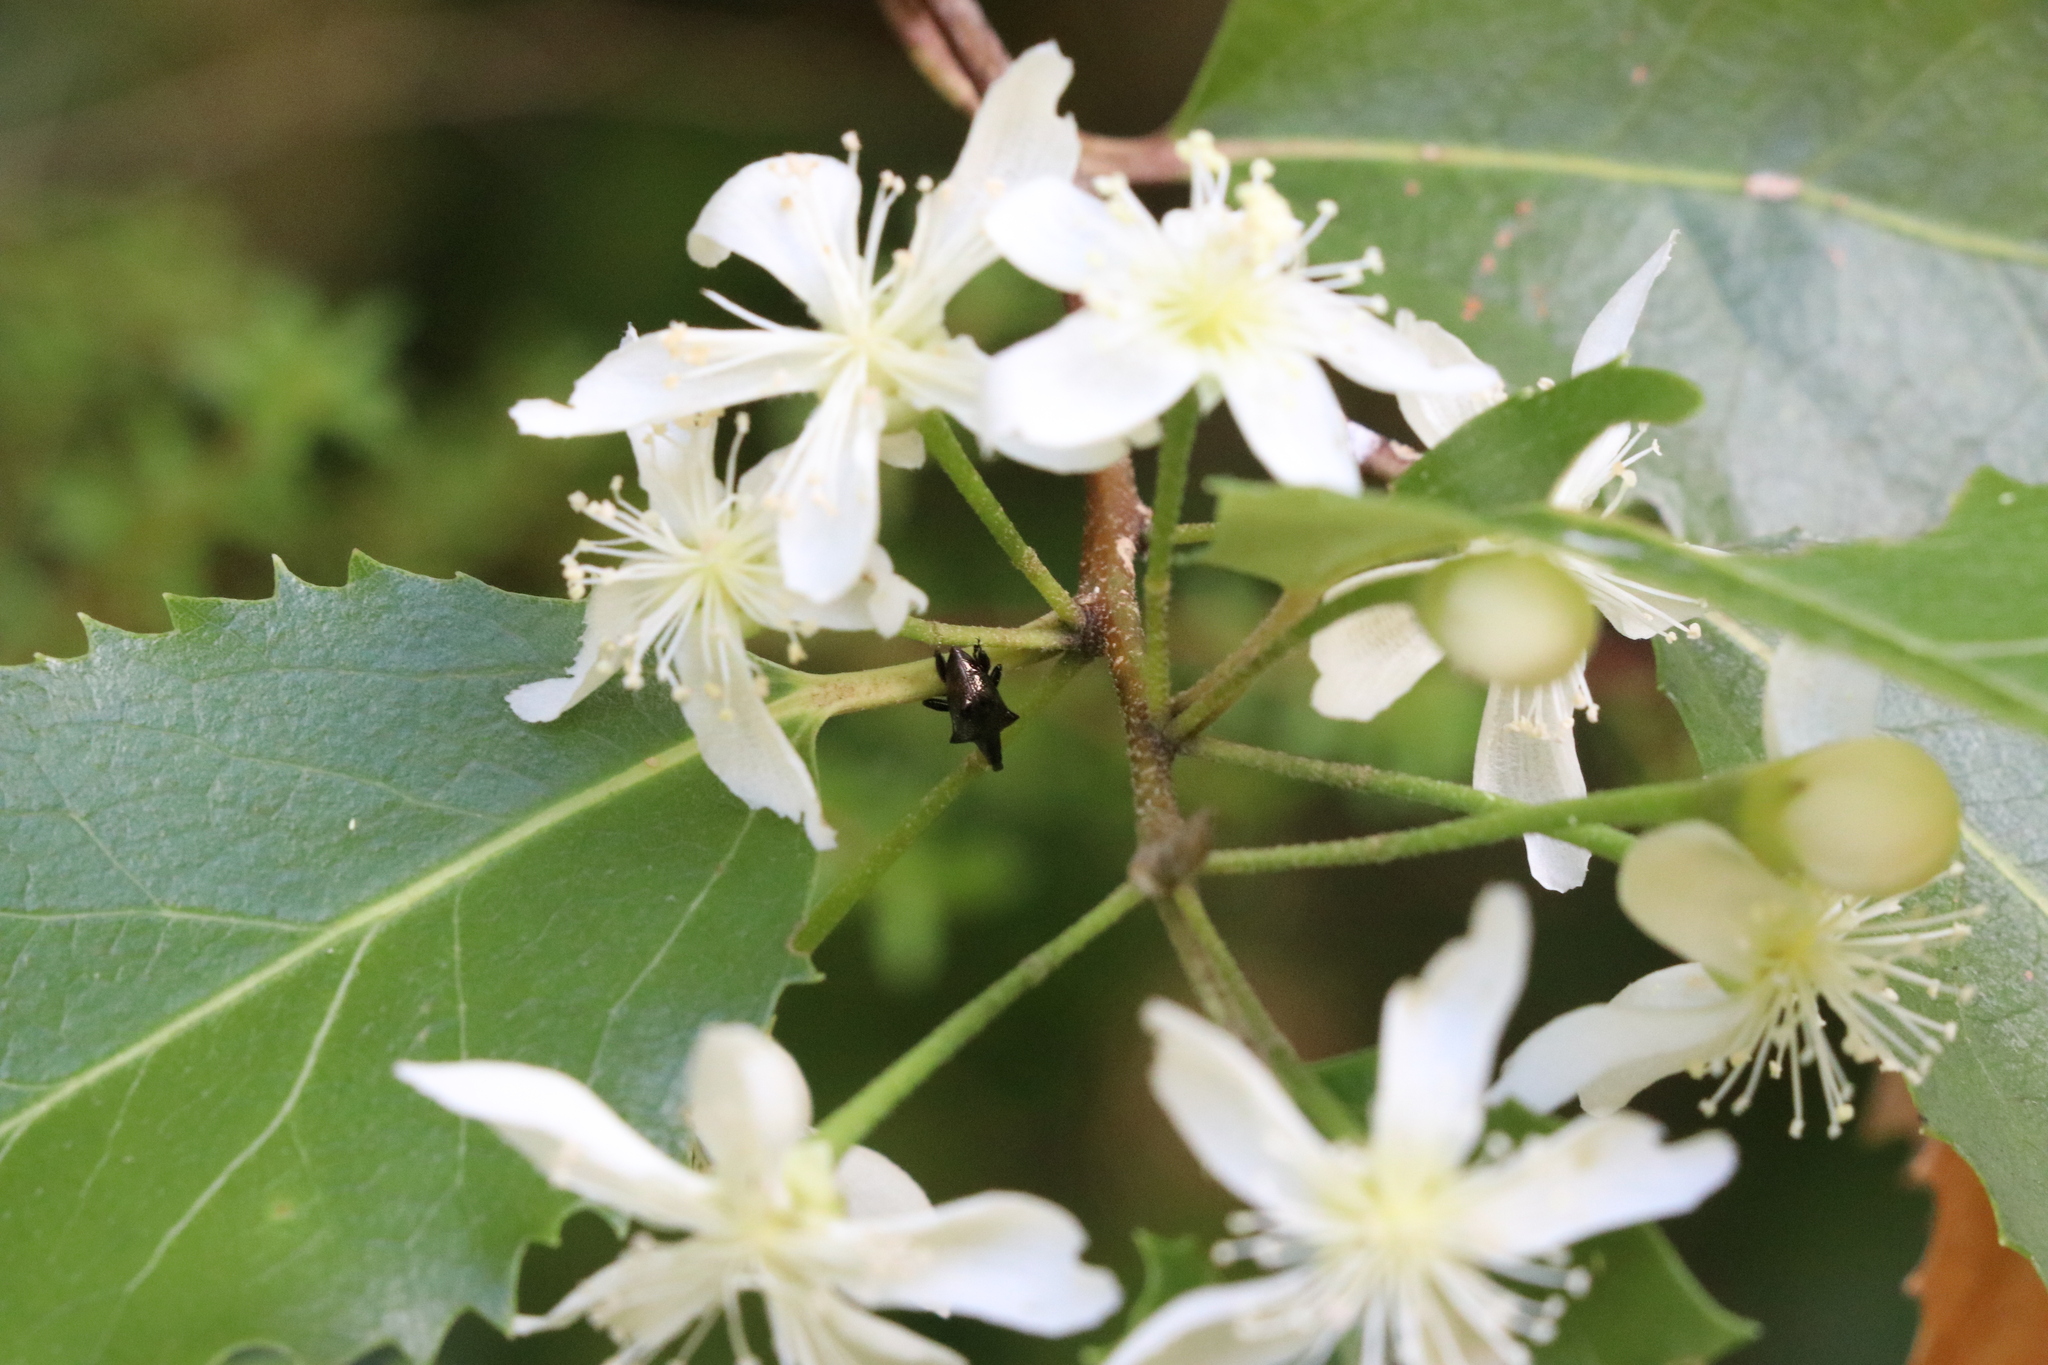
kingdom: Animalia
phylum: Arthropoda
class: Insecta
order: Coleoptera
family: Curculionidae
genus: Scolopterus
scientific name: Scolopterus tetracanthus
